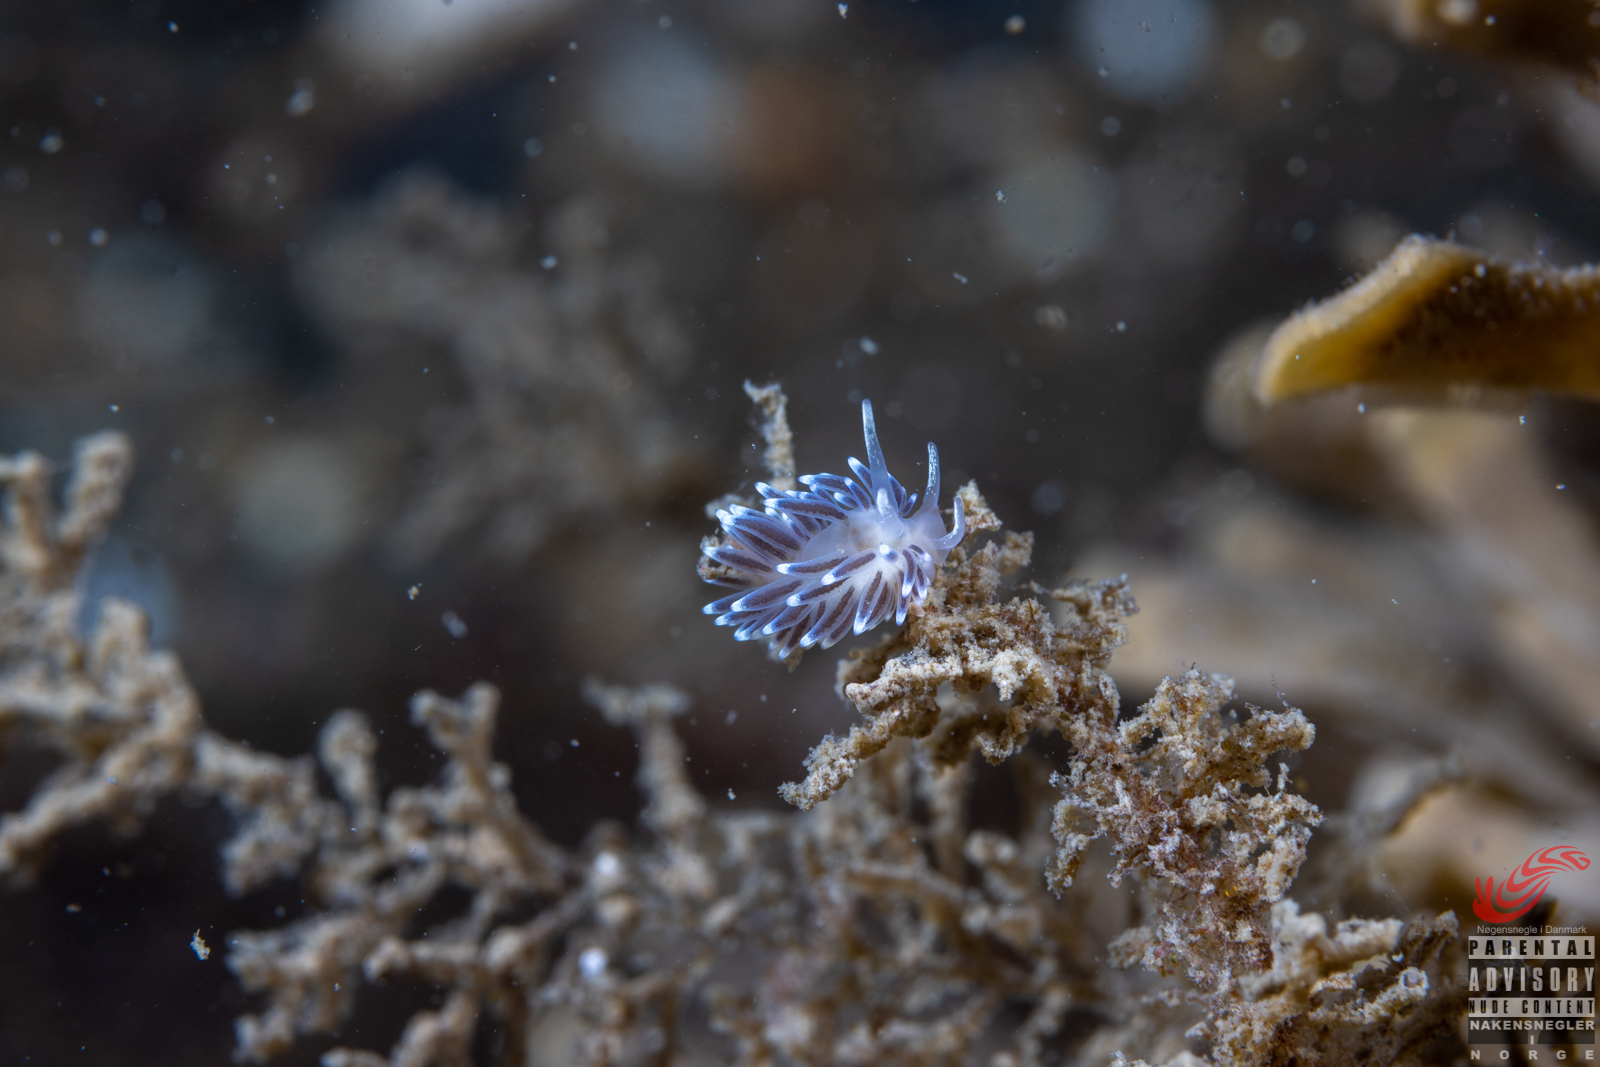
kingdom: Animalia
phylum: Mollusca
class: Gastropoda
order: Nudibranchia
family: Cuthonellidae
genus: Cuthonella
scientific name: Cuthonella concinna
